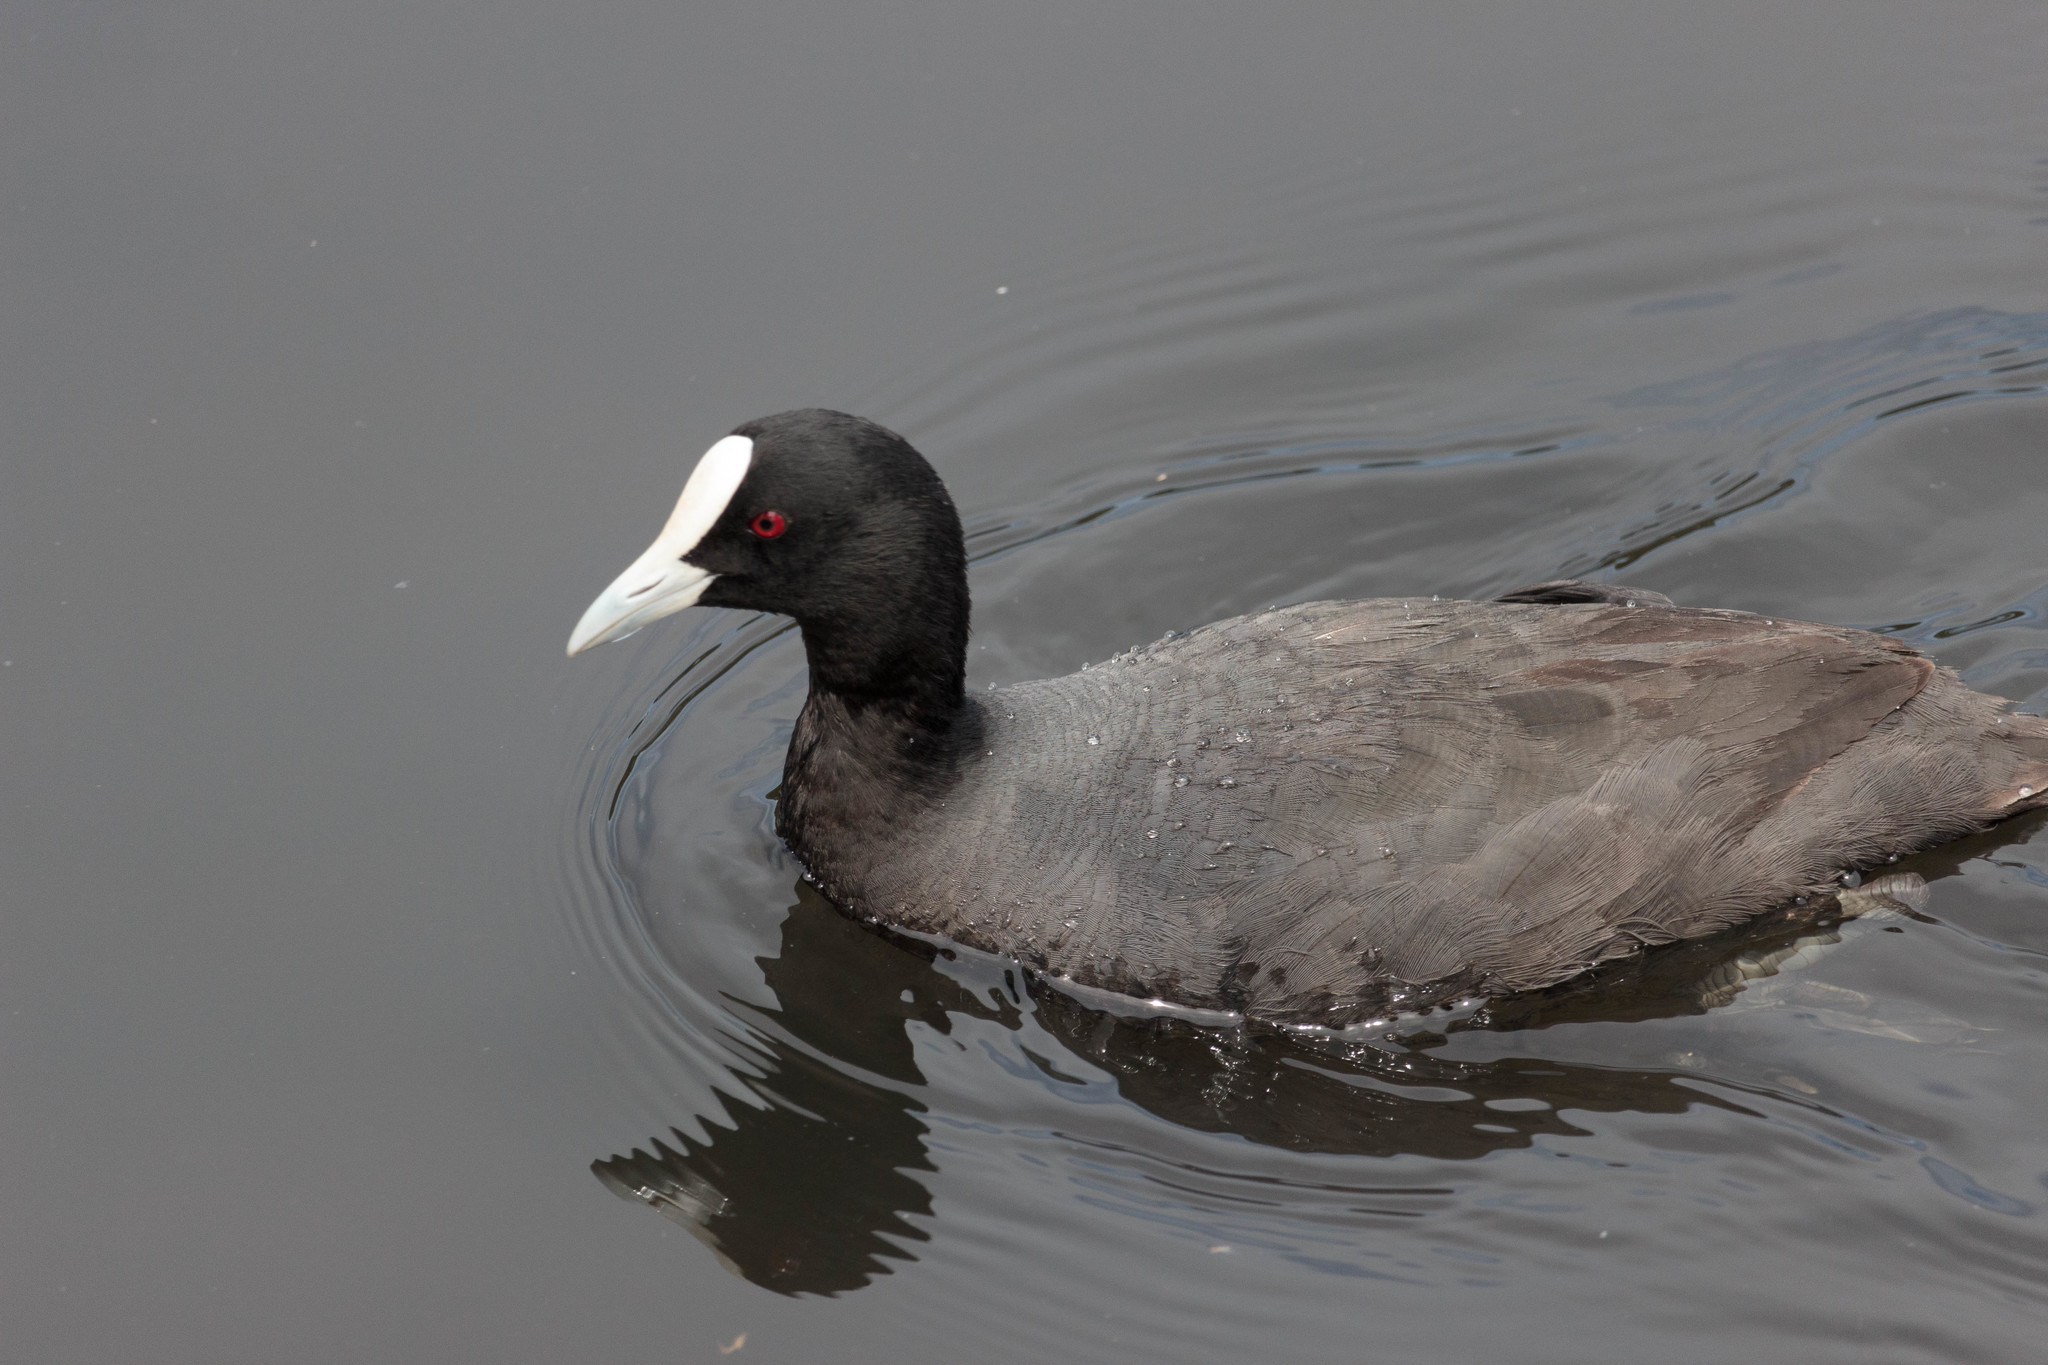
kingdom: Animalia
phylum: Chordata
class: Aves
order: Gruiformes
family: Rallidae
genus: Fulica
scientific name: Fulica atra
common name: Eurasian coot
